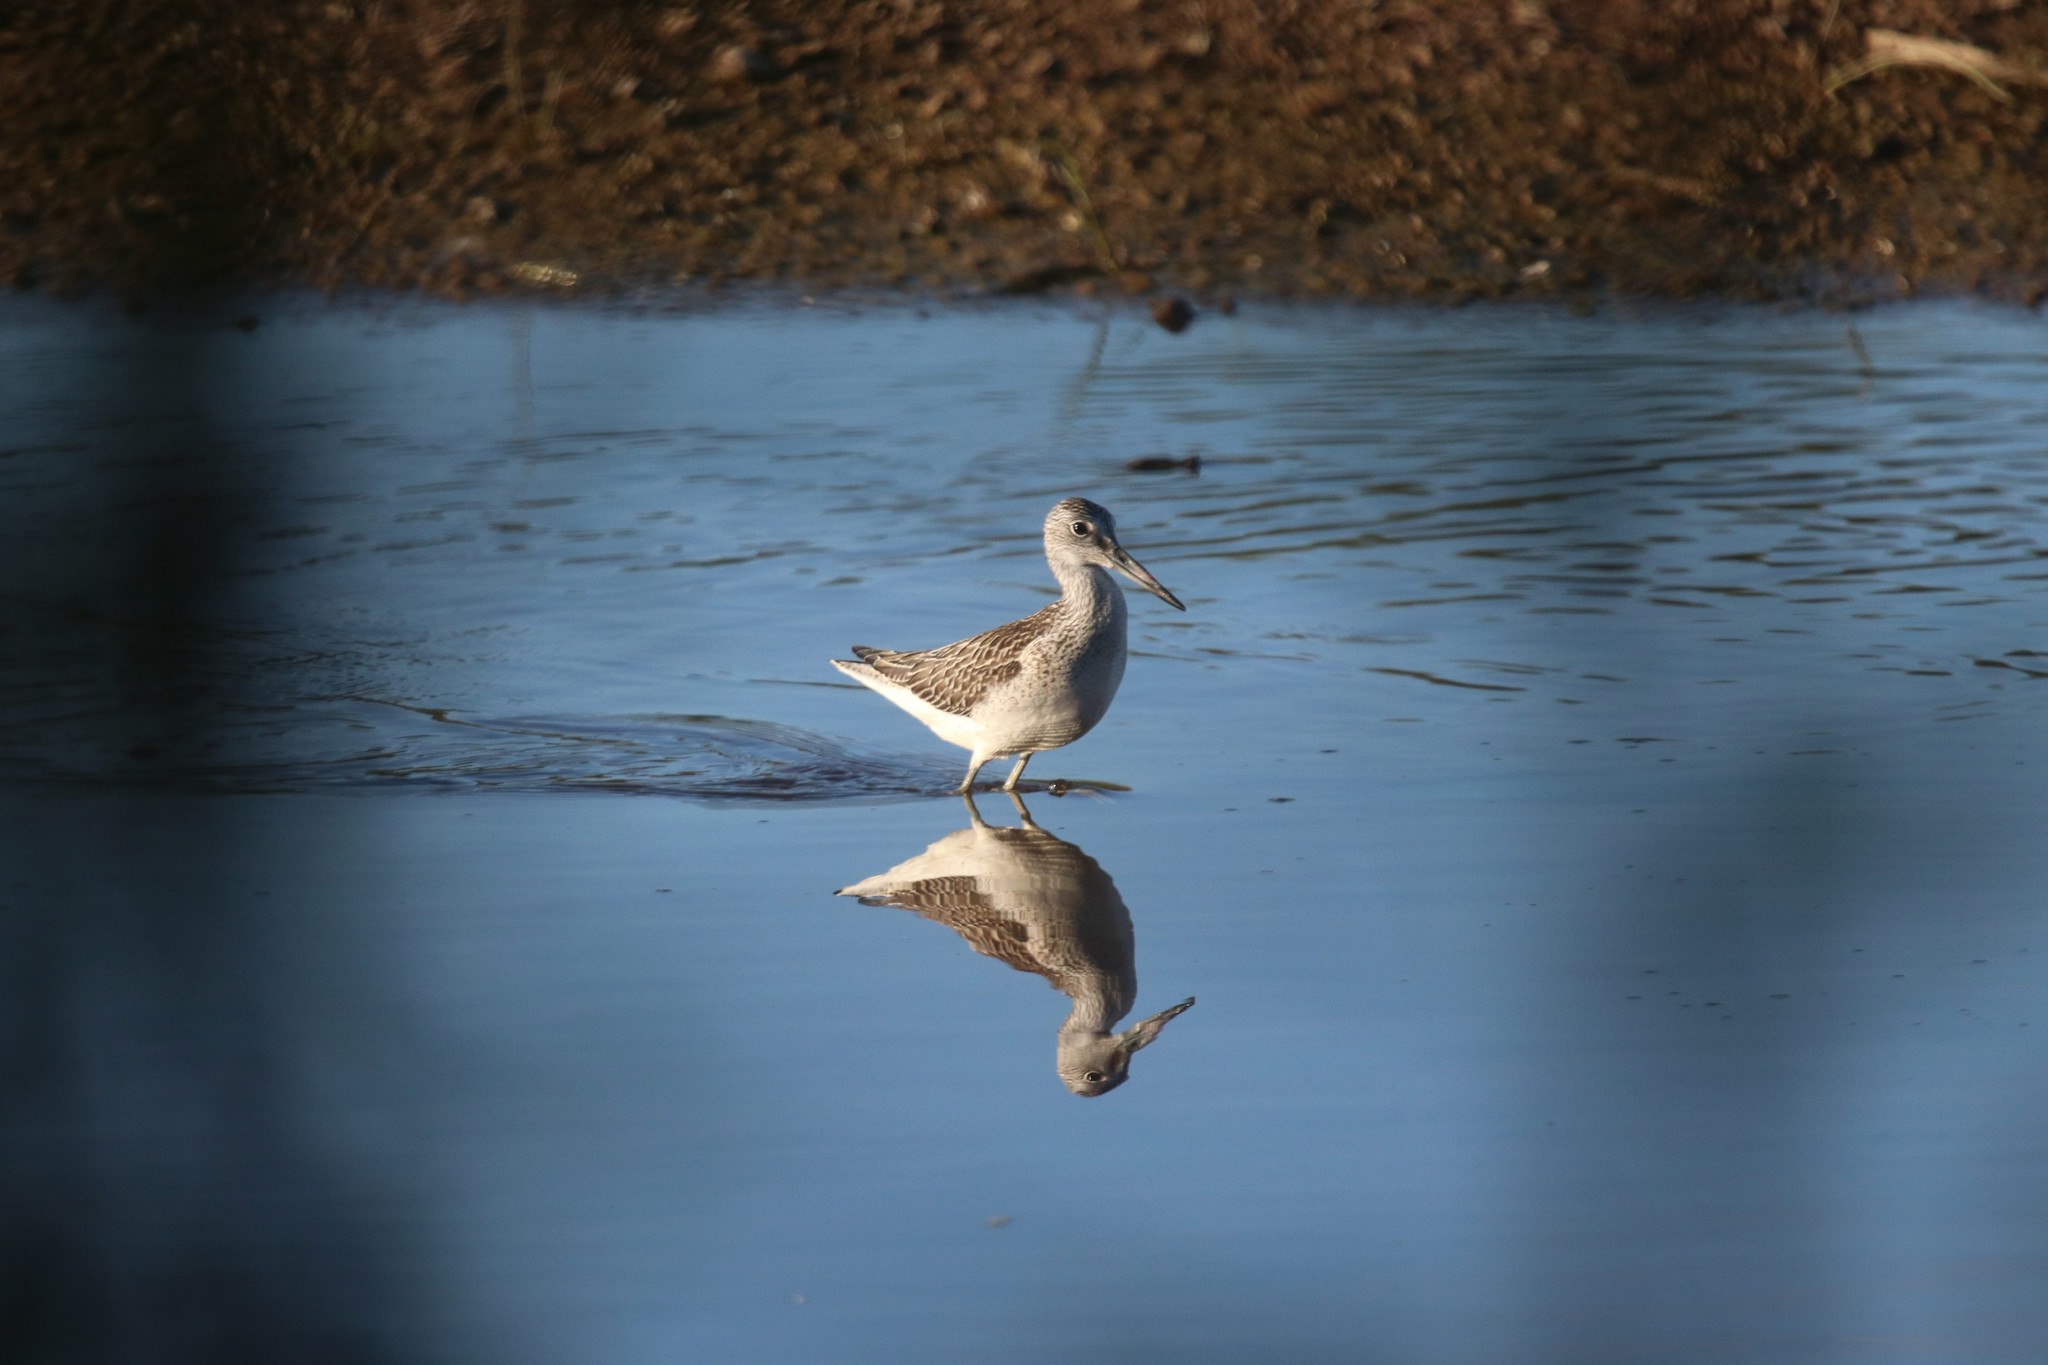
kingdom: Animalia
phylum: Chordata
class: Aves
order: Charadriiformes
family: Scolopacidae
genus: Tringa
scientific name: Tringa nebularia
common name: Common greenshank
